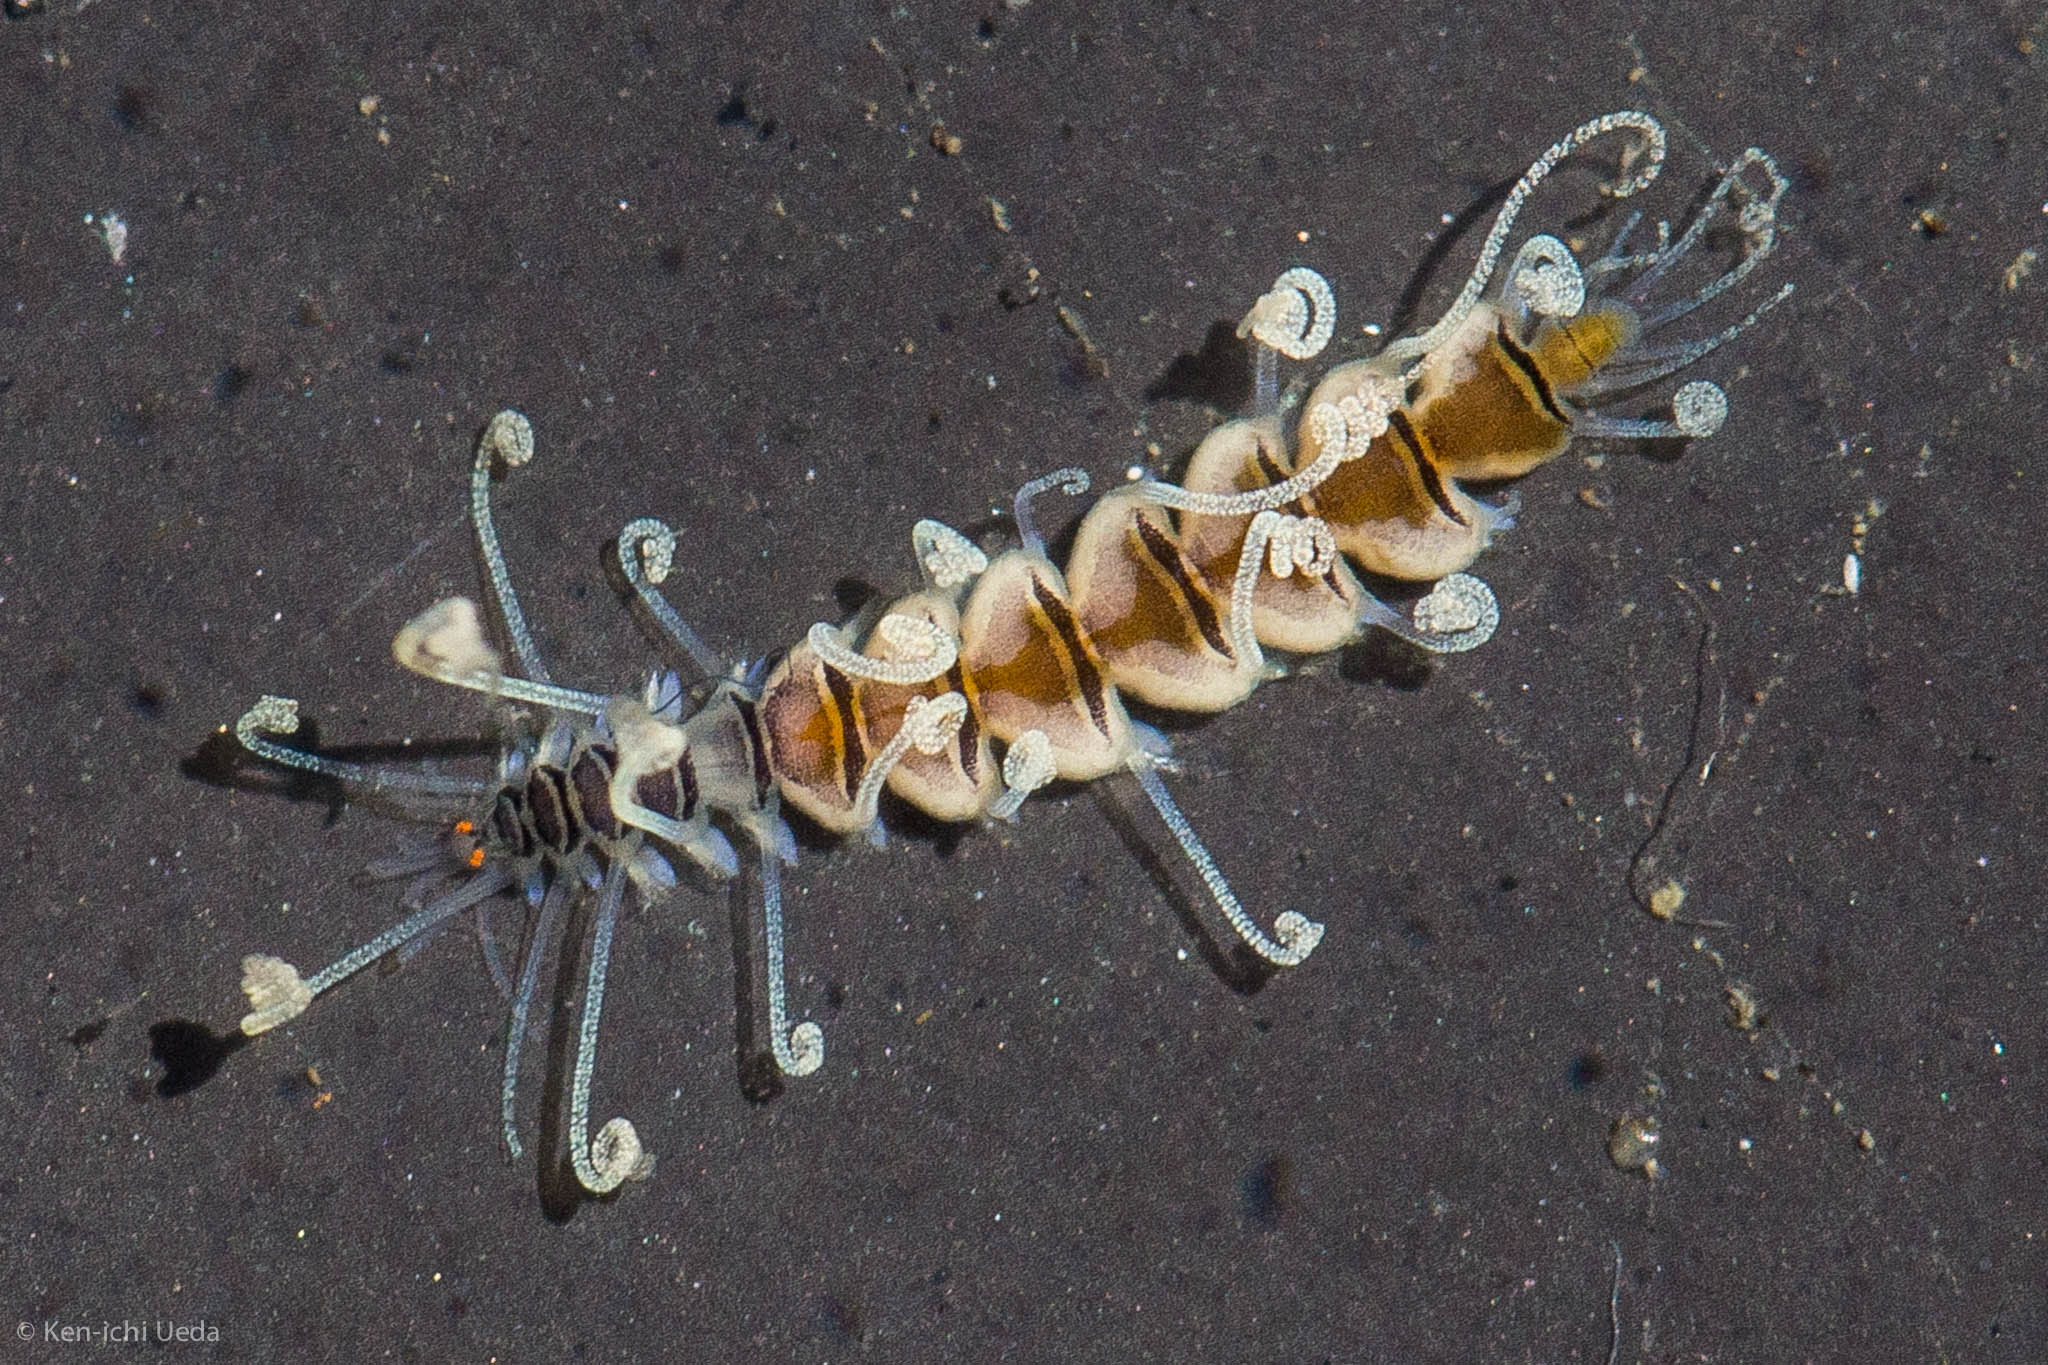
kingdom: Animalia
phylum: Annelida
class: Polychaeta
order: Phyllodocida
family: Syllidae
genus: Amblyosyllis
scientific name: Amblyosyllis nigrolineata
